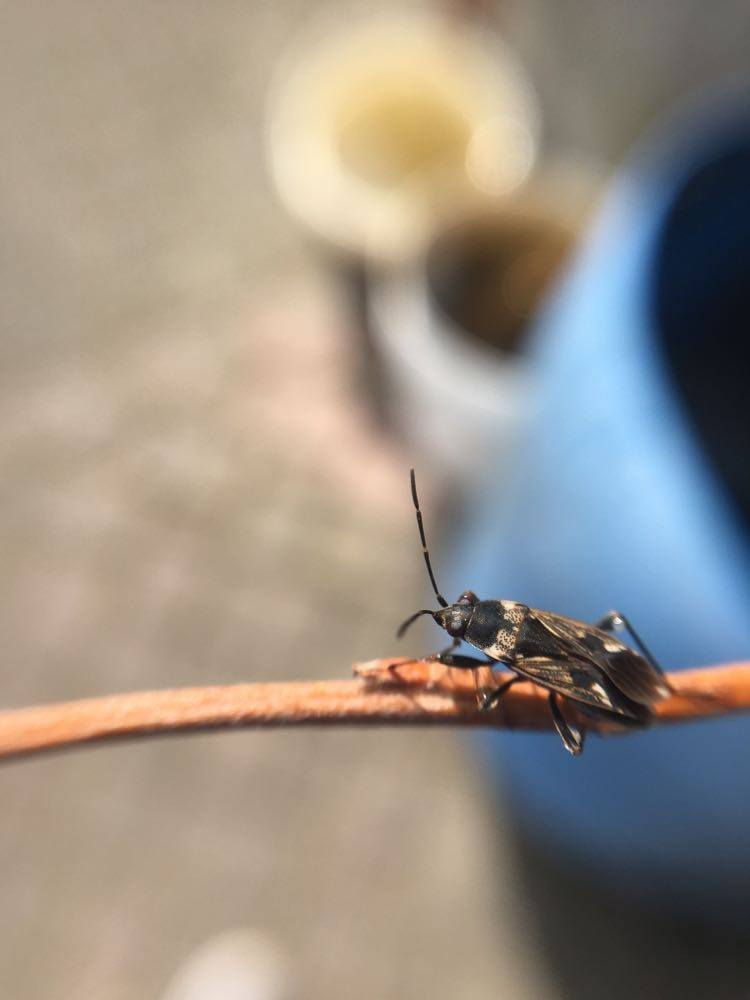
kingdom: Animalia
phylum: Arthropoda
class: Insecta
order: Hemiptera
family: Rhyparochromidae
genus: Rhyparochromus
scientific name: Rhyparochromus vulgaris
